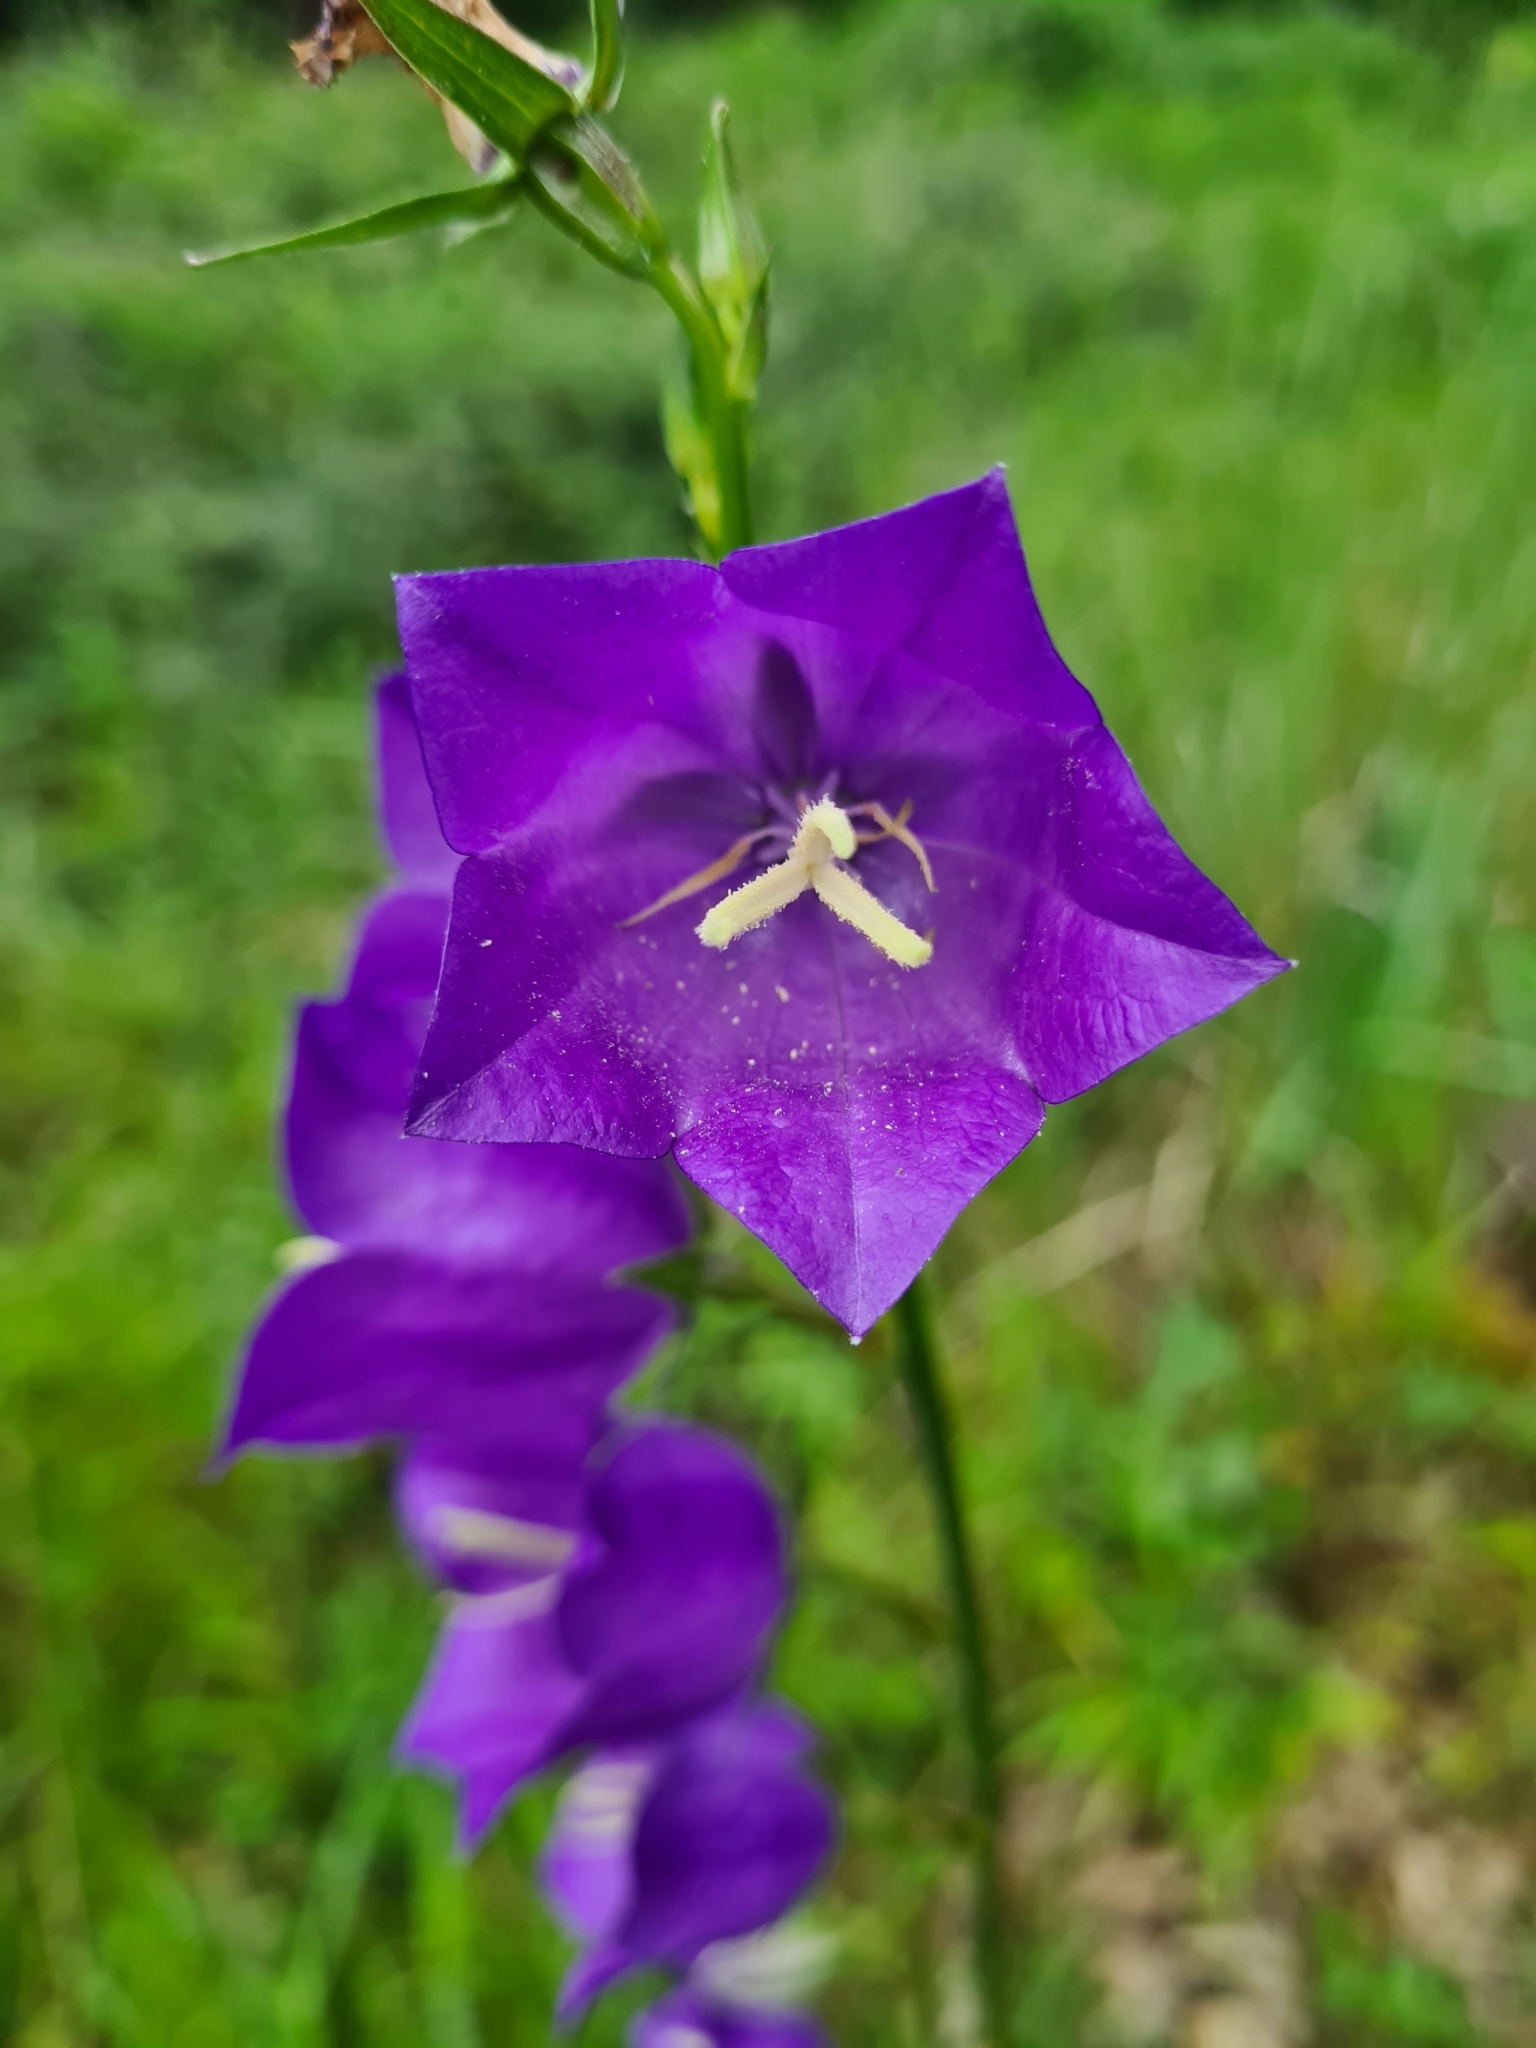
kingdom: Plantae
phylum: Tracheophyta
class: Magnoliopsida
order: Asterales
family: Campanulaceae
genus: Campanula
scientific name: Campanula persicifolia
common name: Peach-leaved bellflower
